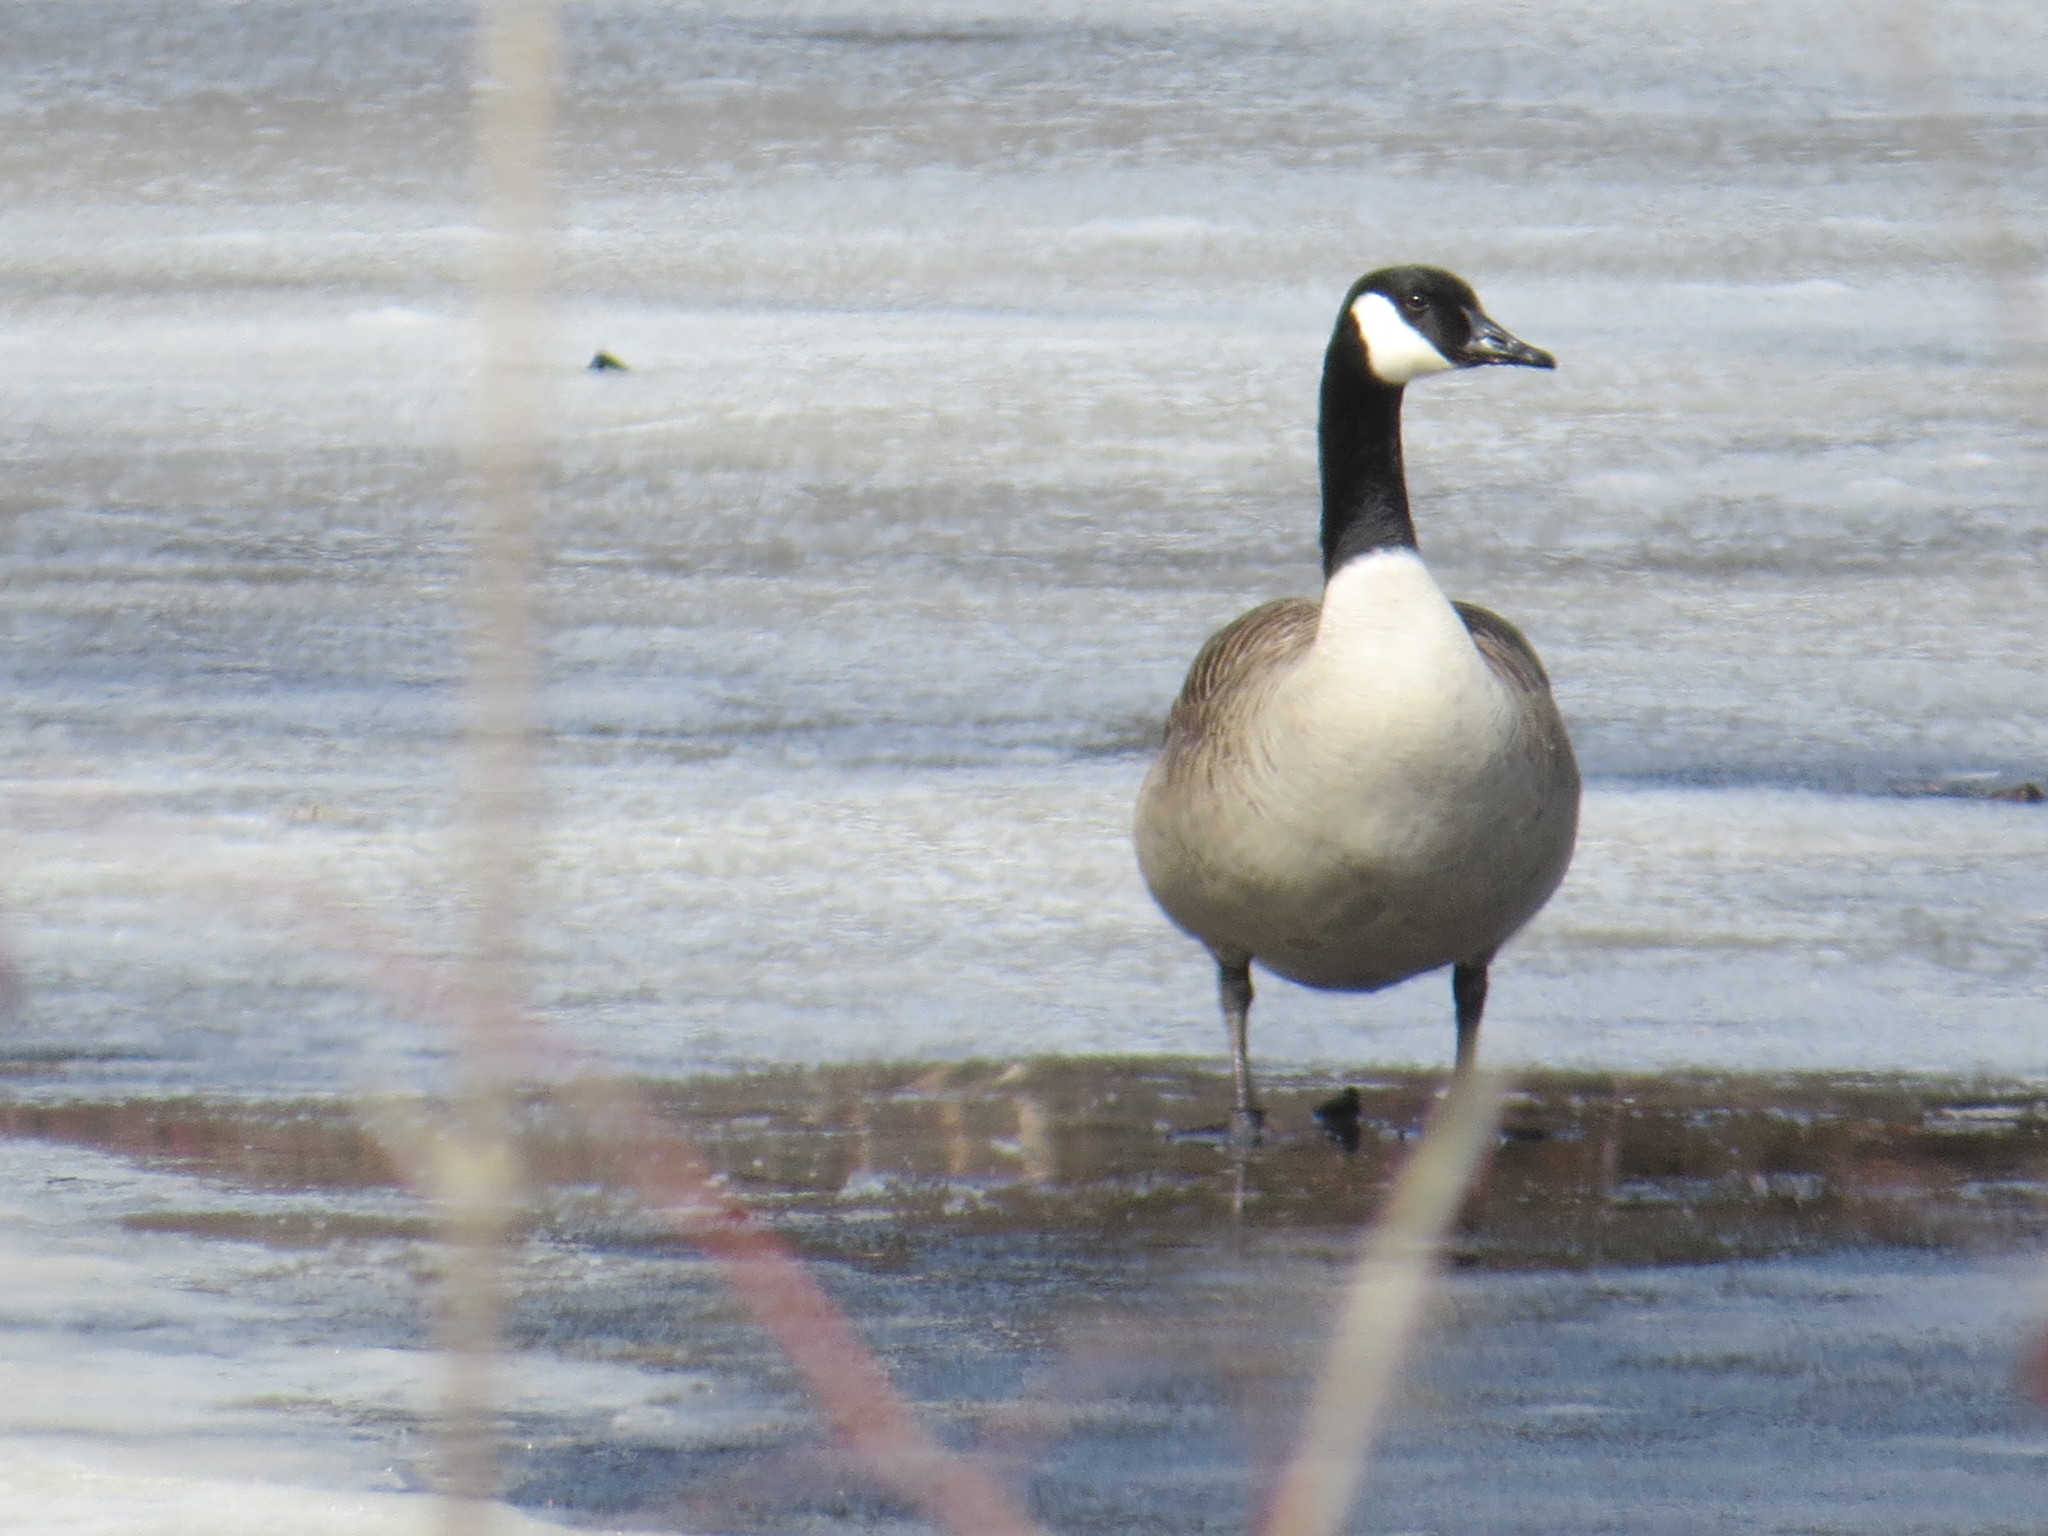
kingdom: Animalia
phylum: Chordata
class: Aves
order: Anseriformes
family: Anatidae
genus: Branta
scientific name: Branta canadensis
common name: Canada goose
